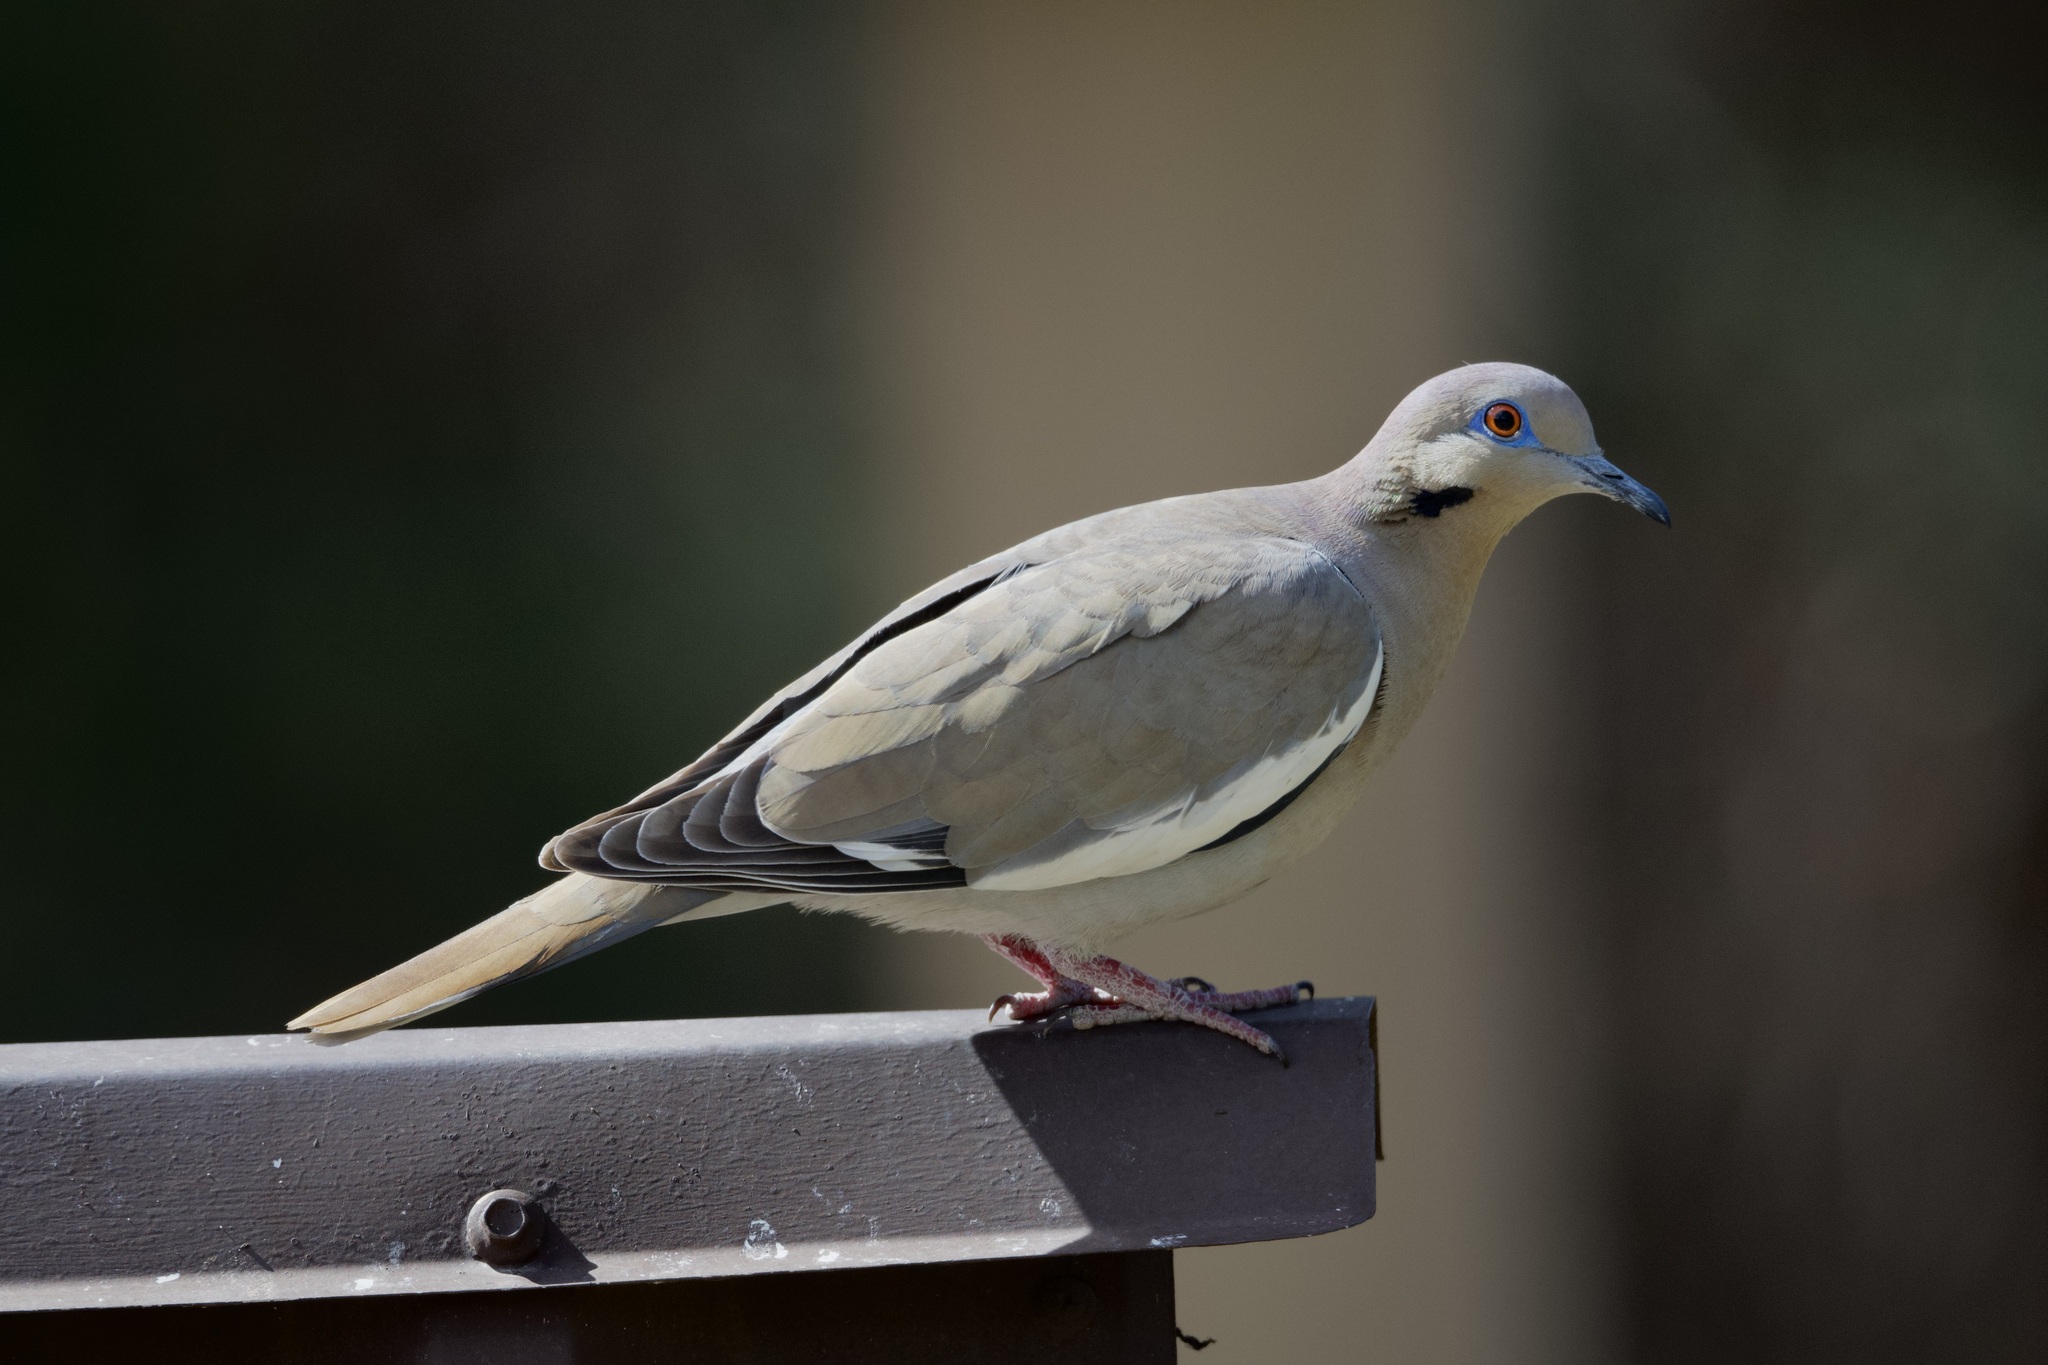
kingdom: Animalia
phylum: Chordata
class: Aves
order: Columbiformes
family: Columbidae
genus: Zenaida
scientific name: Zenaida asiatica
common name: White-winged dove
